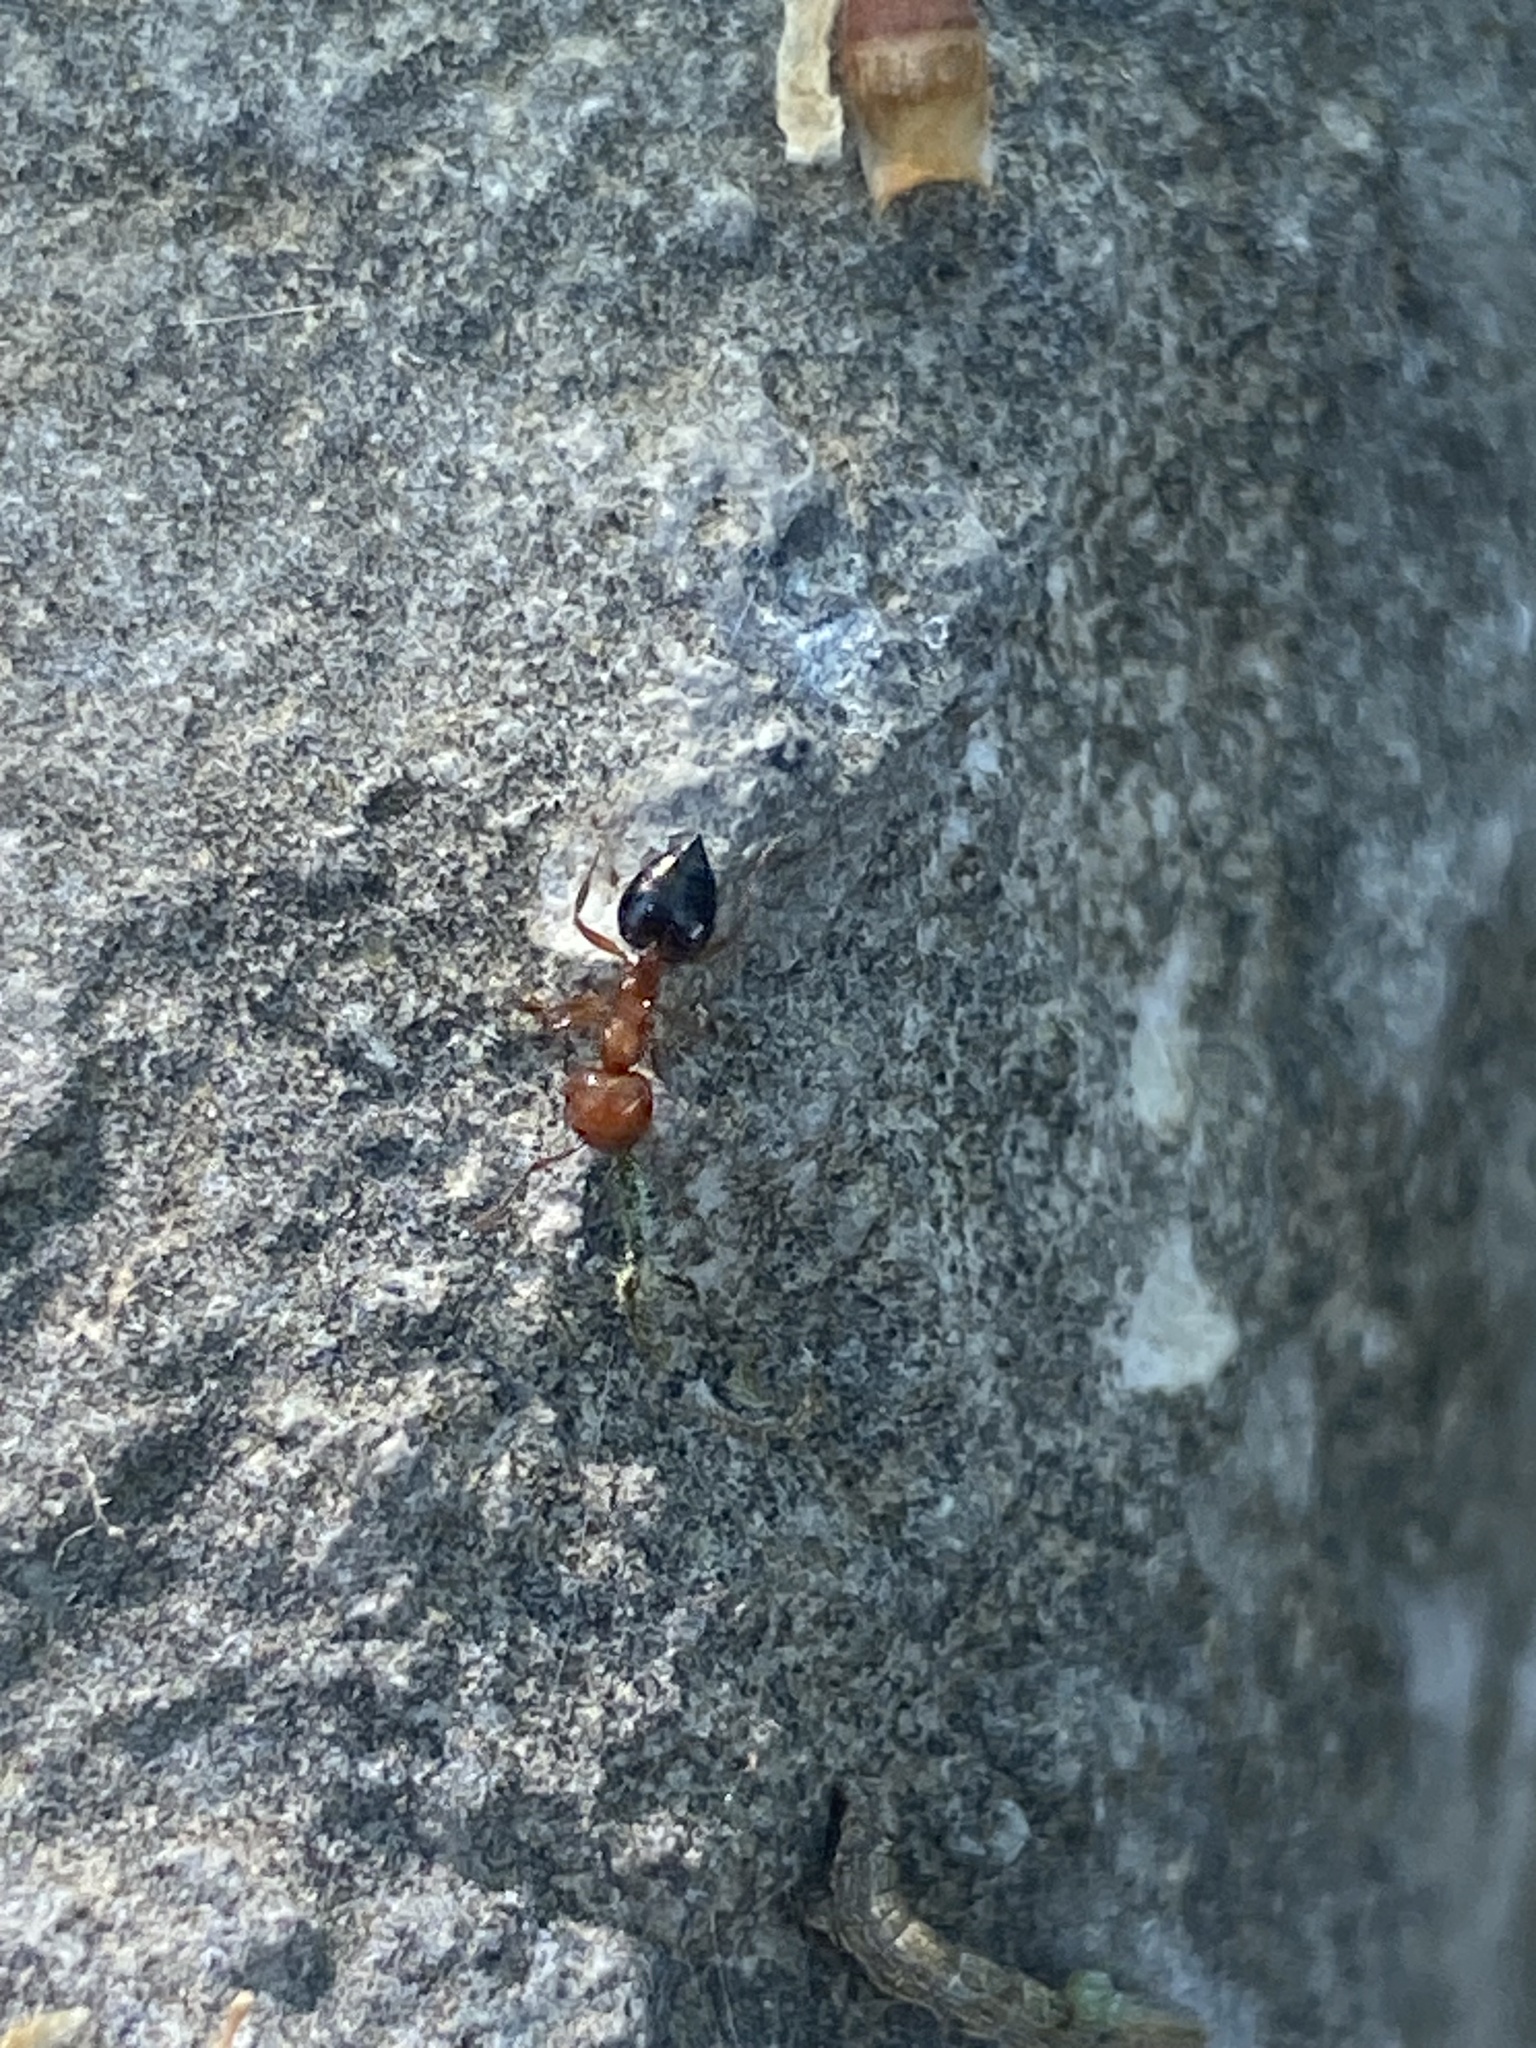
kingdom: Animalia
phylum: Arthropoda
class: Insecta
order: Hymenoptera
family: Formicidae
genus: Crematogaster
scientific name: Crematogaster laeviuscula
